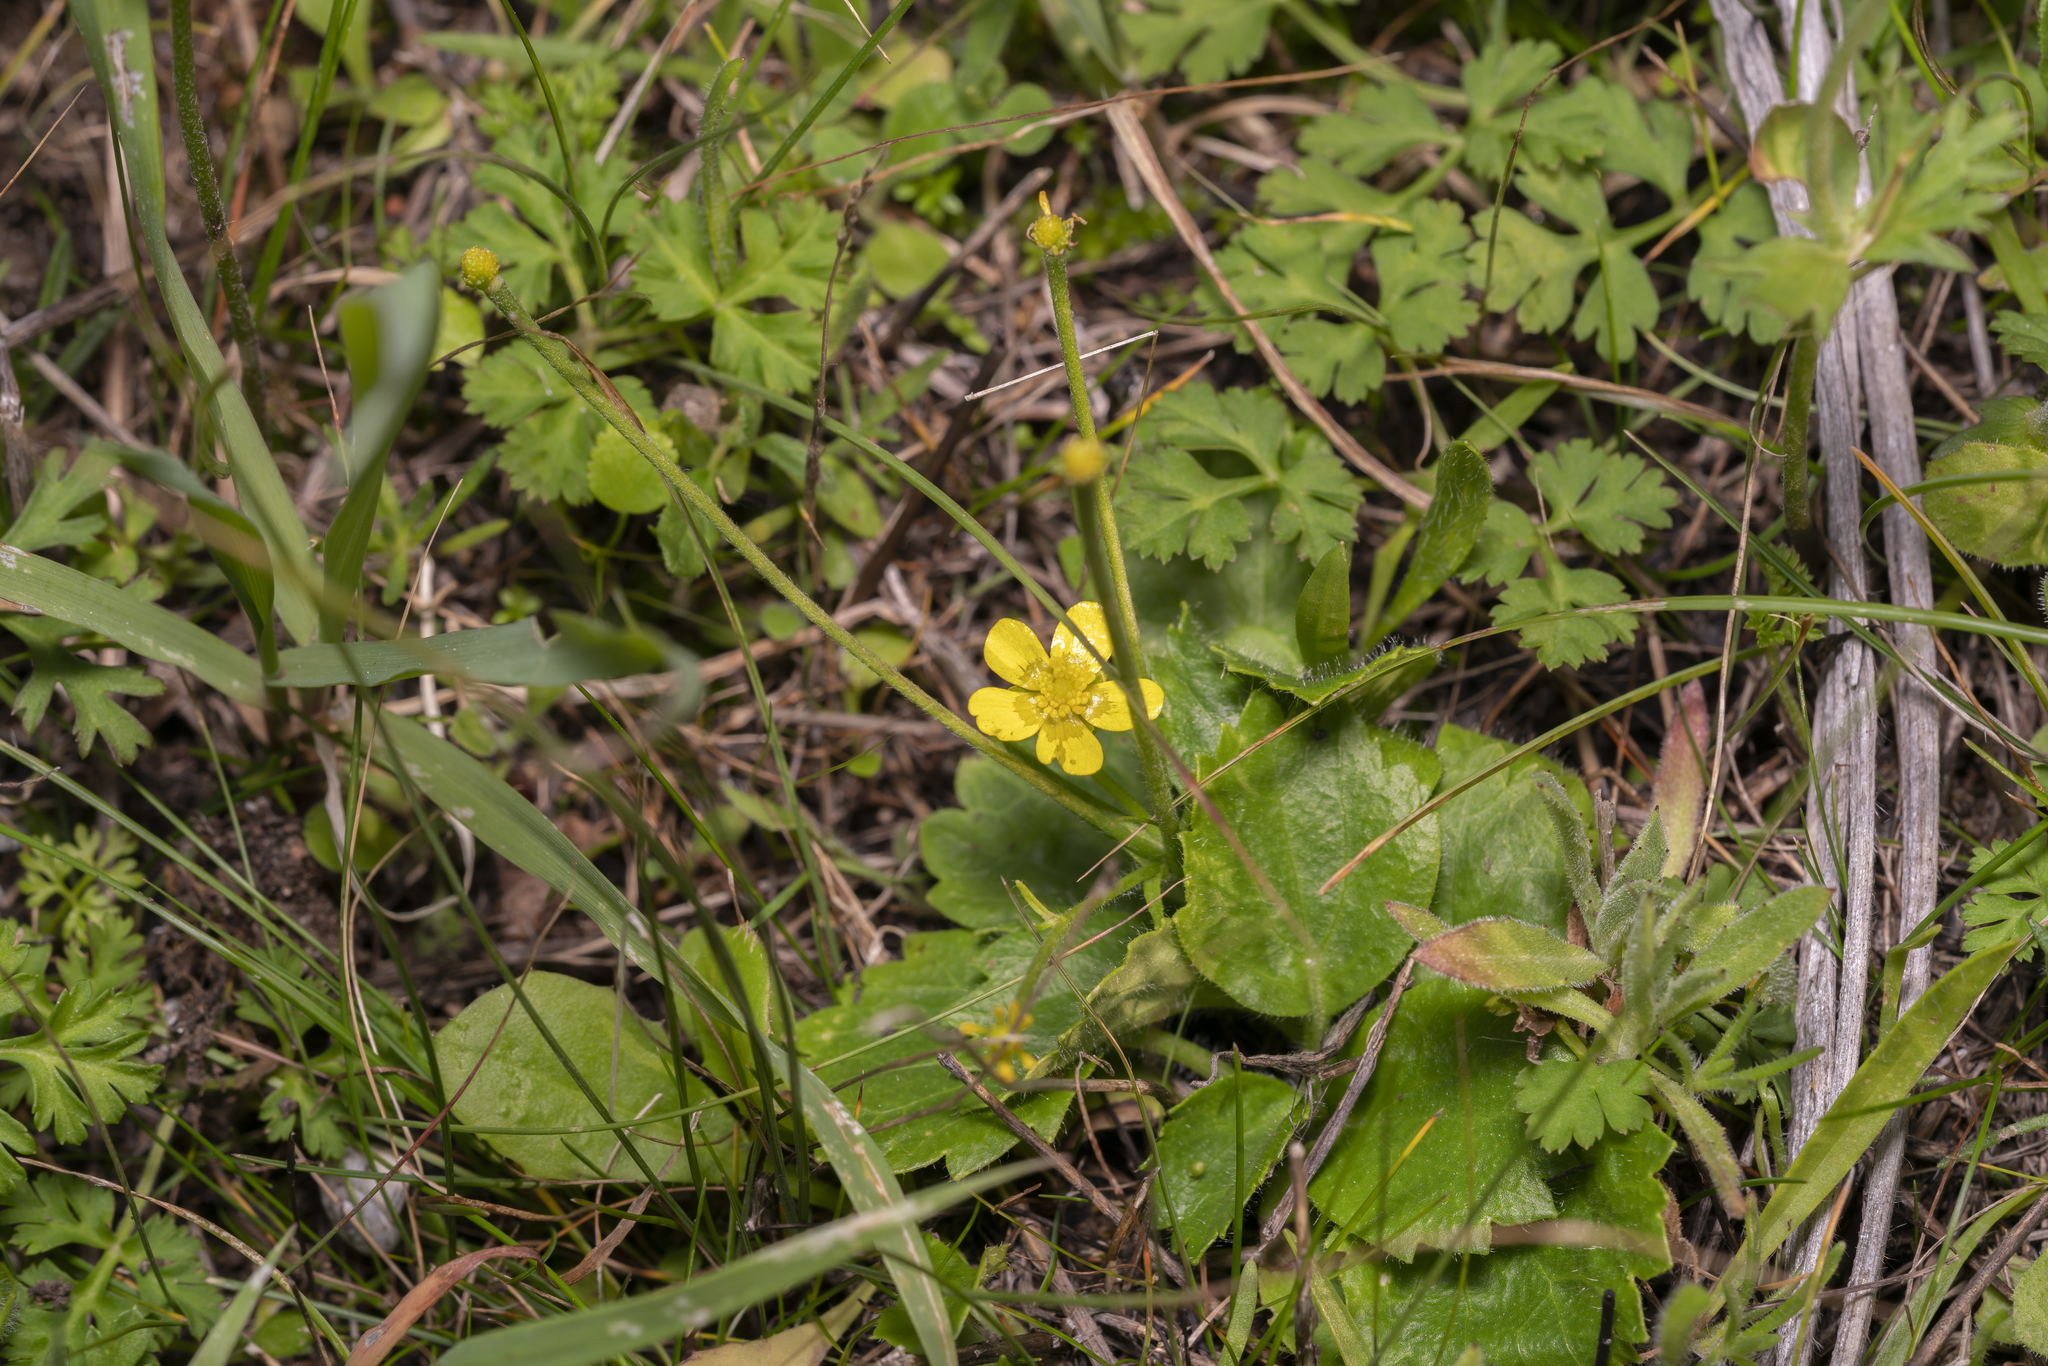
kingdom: Plantae
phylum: Tracheophyta
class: Magnoliopsida
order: Ranunculales
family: Ranunculaceae
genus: Ranunculus
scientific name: Ranunculus bullatus
